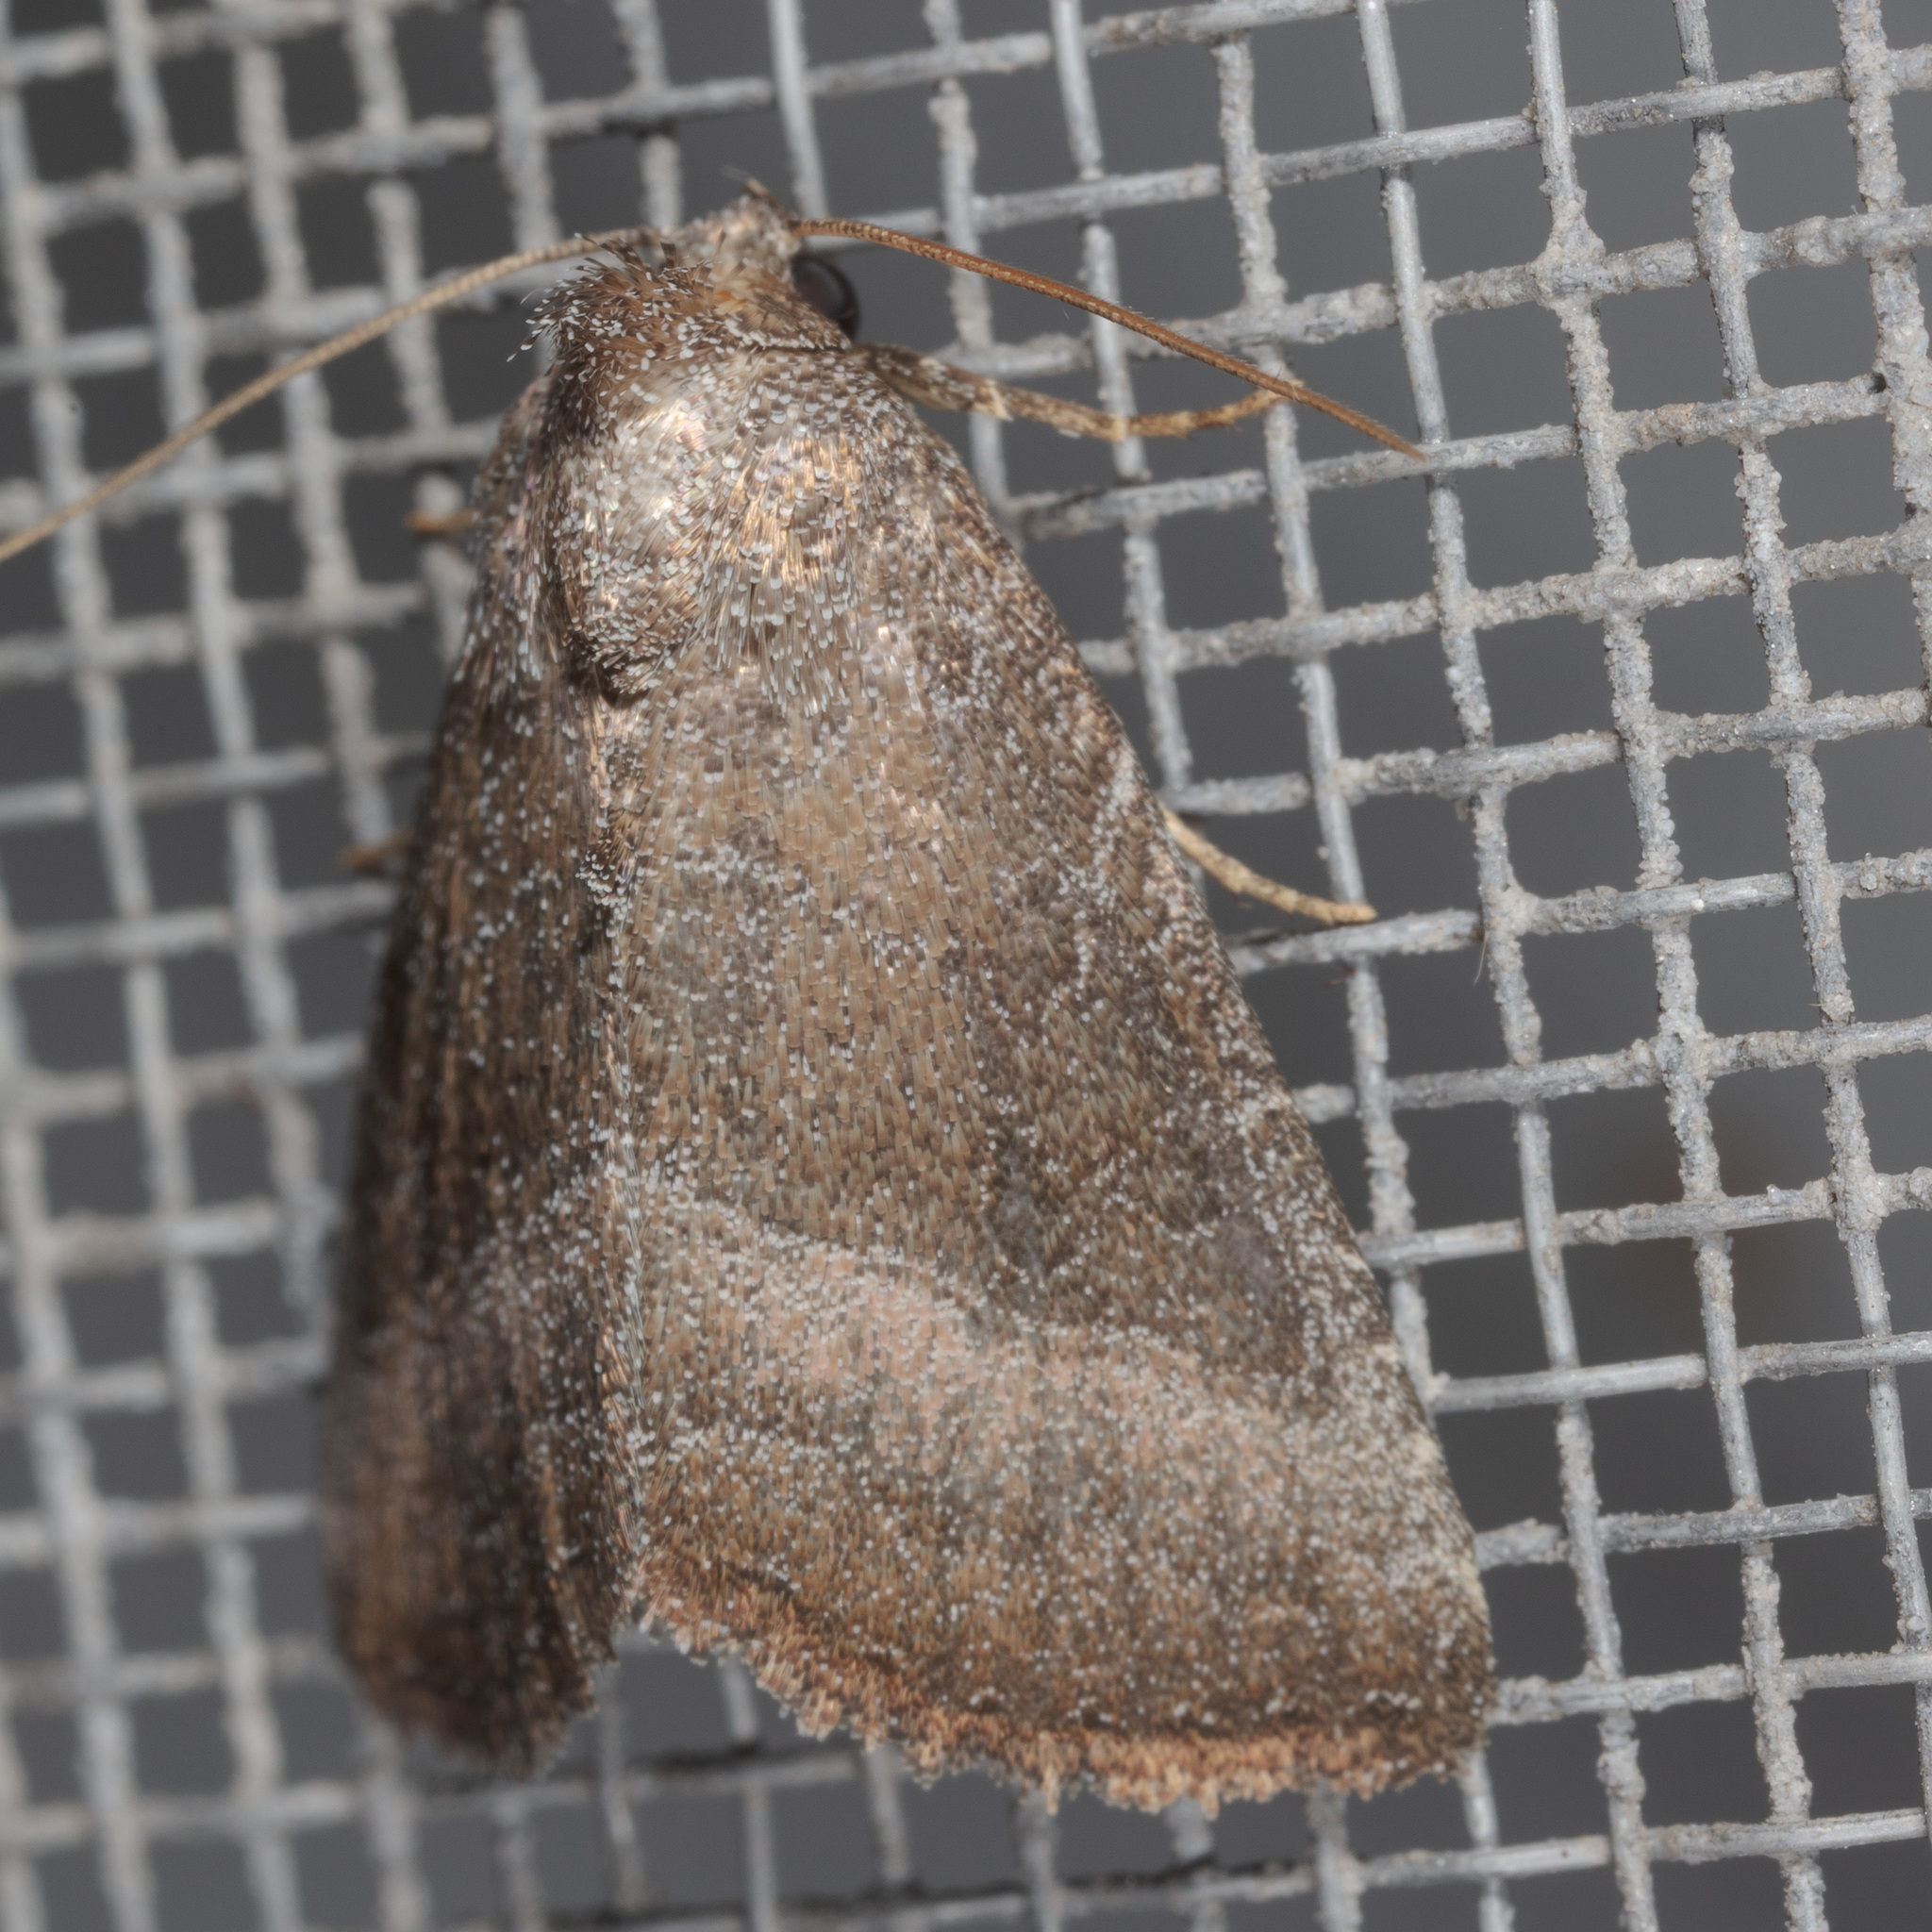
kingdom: Animalia
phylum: Arthropoda
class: Insecta
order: Lepidoptera
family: Noctuidae
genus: Ogdoconta
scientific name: Ogdoconta cinereola
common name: Common pinkband
